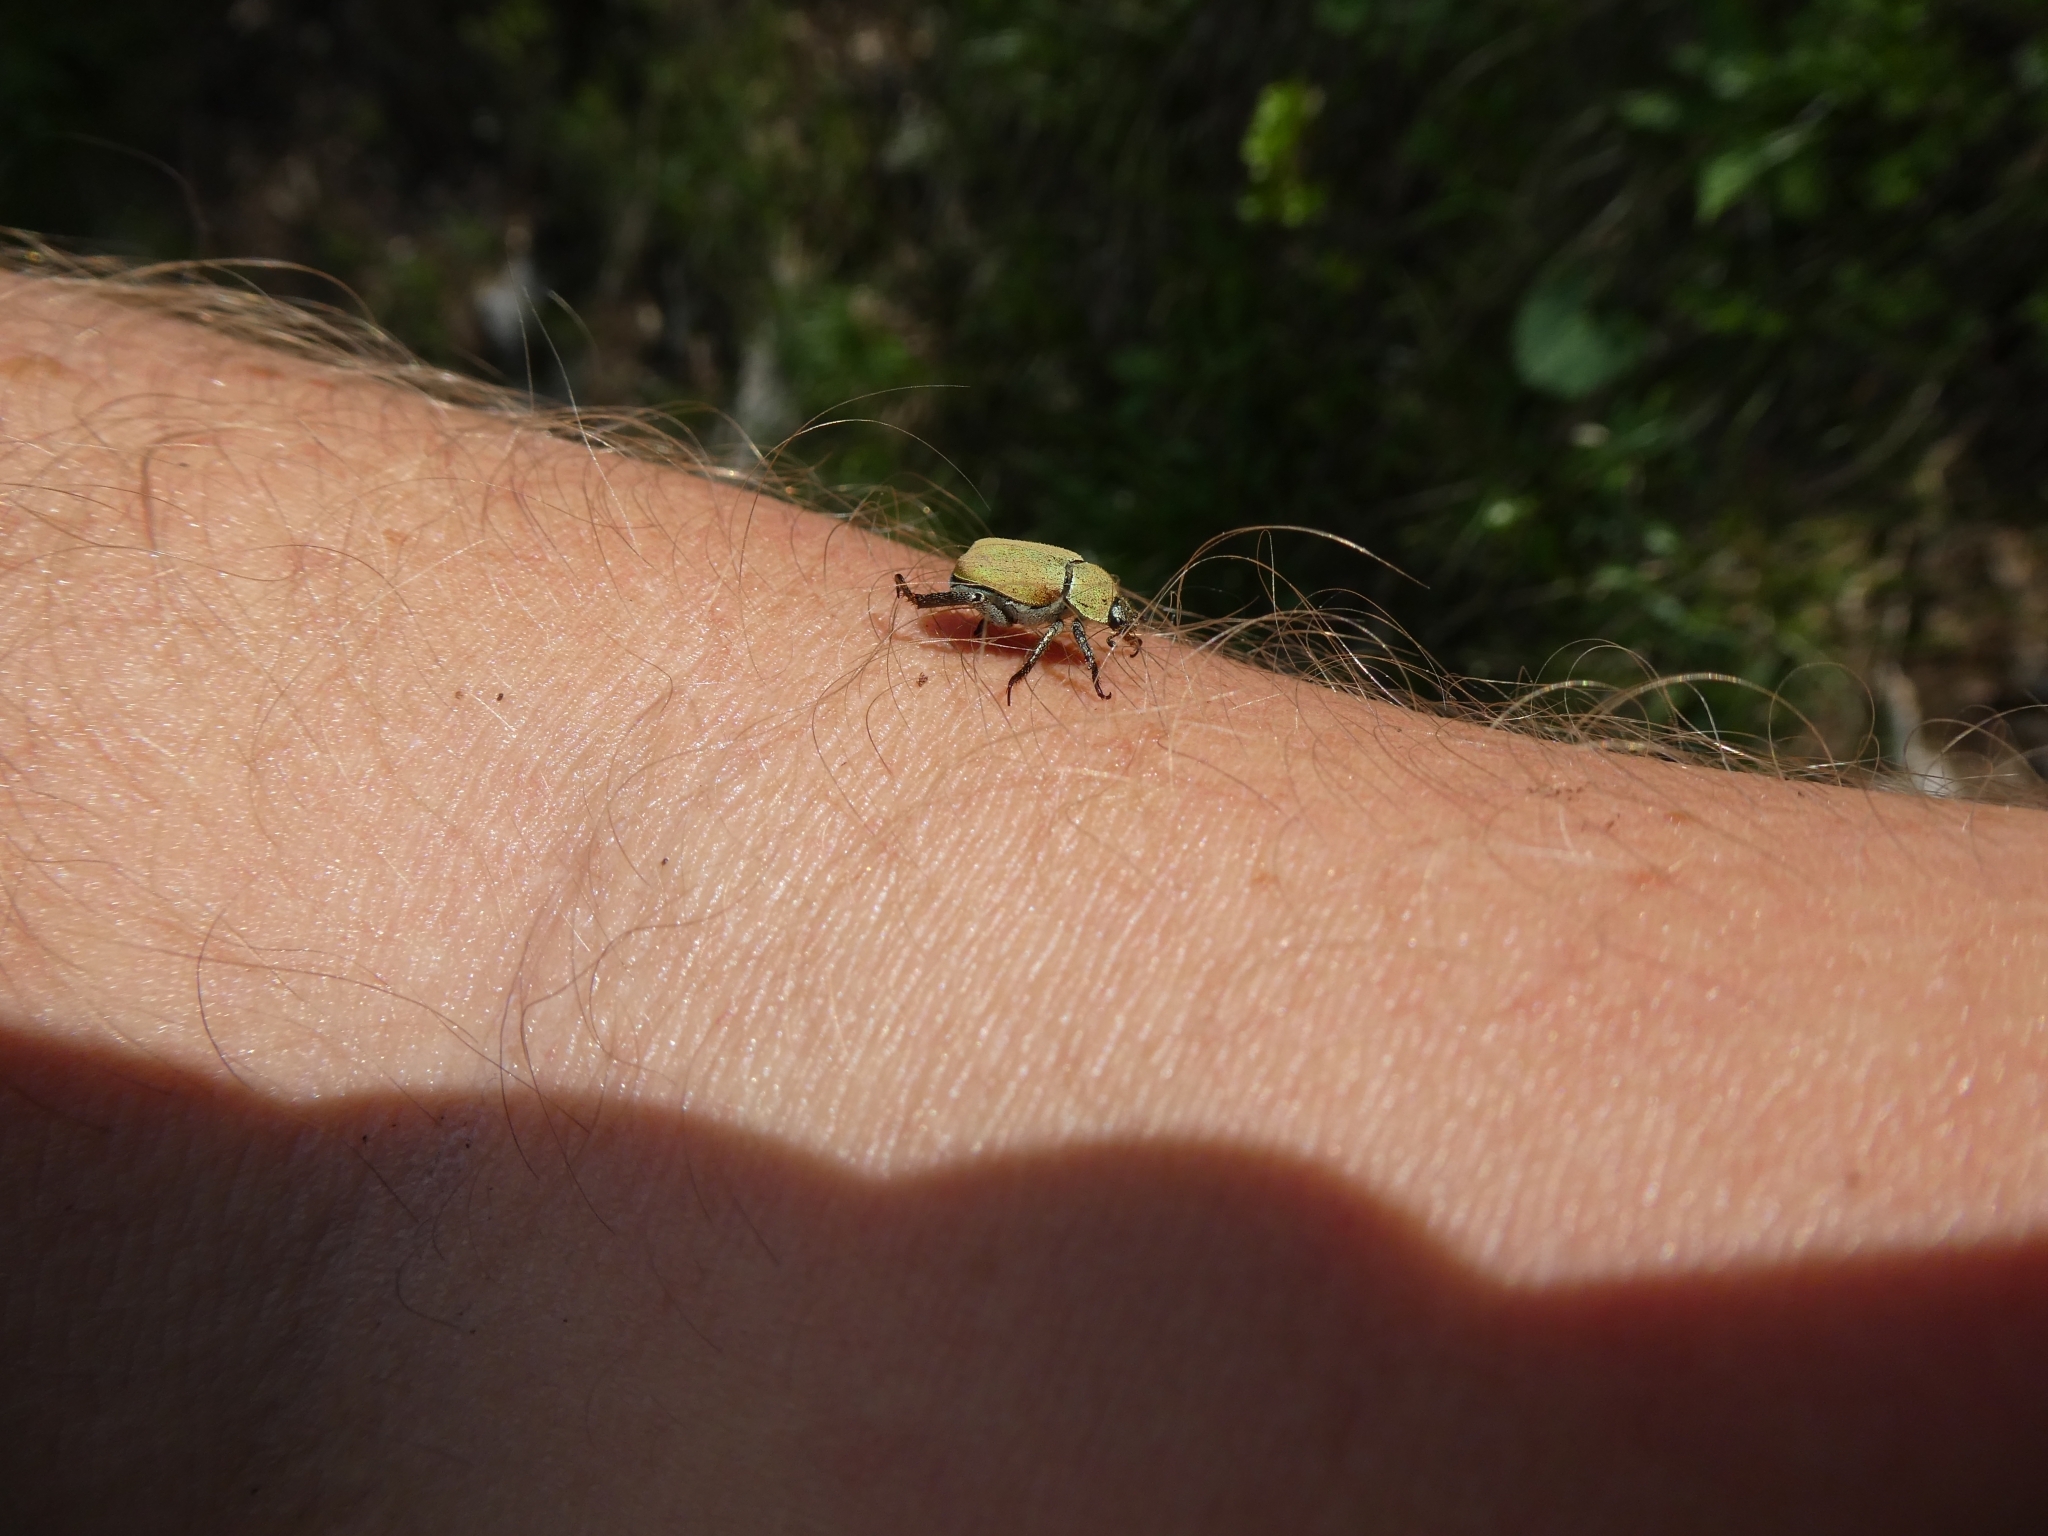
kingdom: Animalia
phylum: Arthropoda
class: Insecta
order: Coleoptera
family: Scarabaeidae
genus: Hoplia
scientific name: Hoplia argentea
